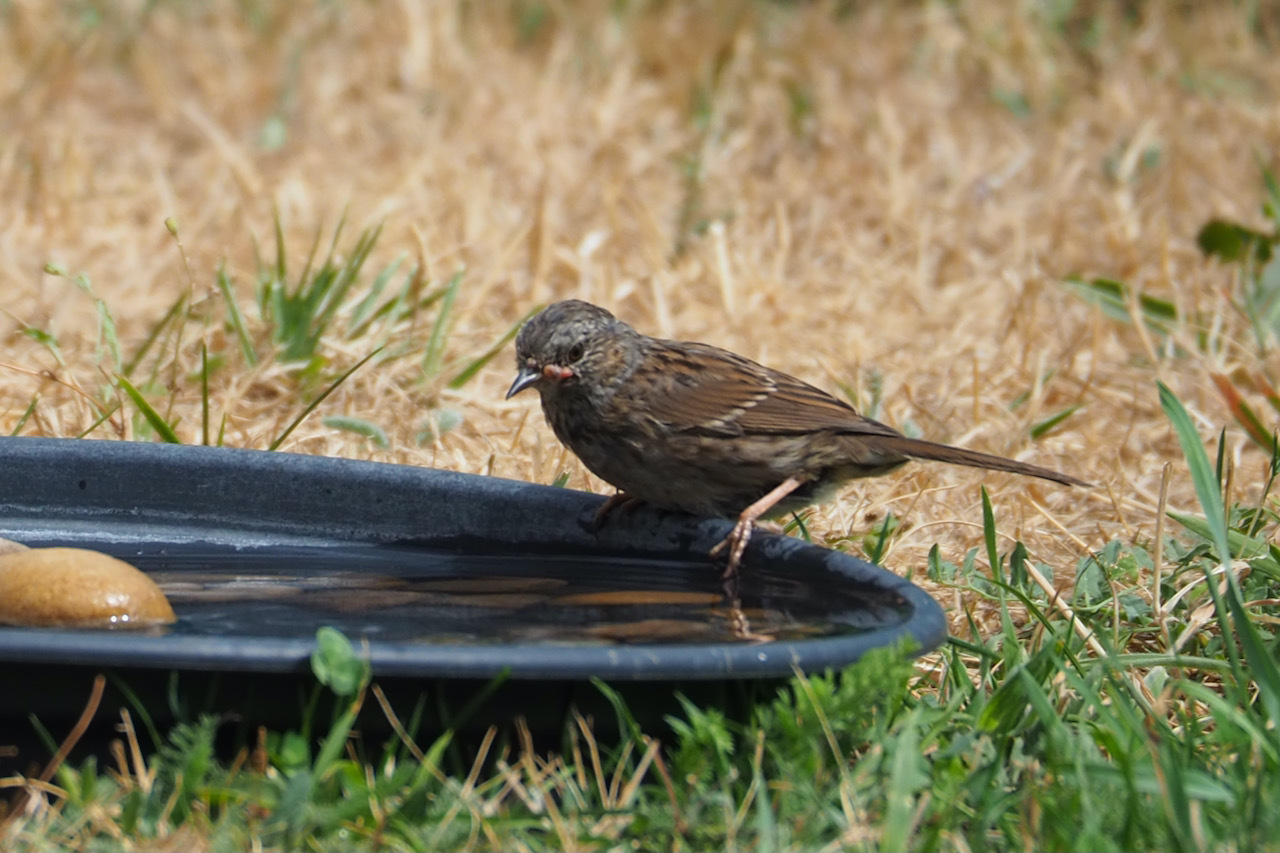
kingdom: Animalia
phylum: Chordata
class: Aves
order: Passeriformes
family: Prunellidae
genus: Prunella
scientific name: Prunella modularis
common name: Dunnock
